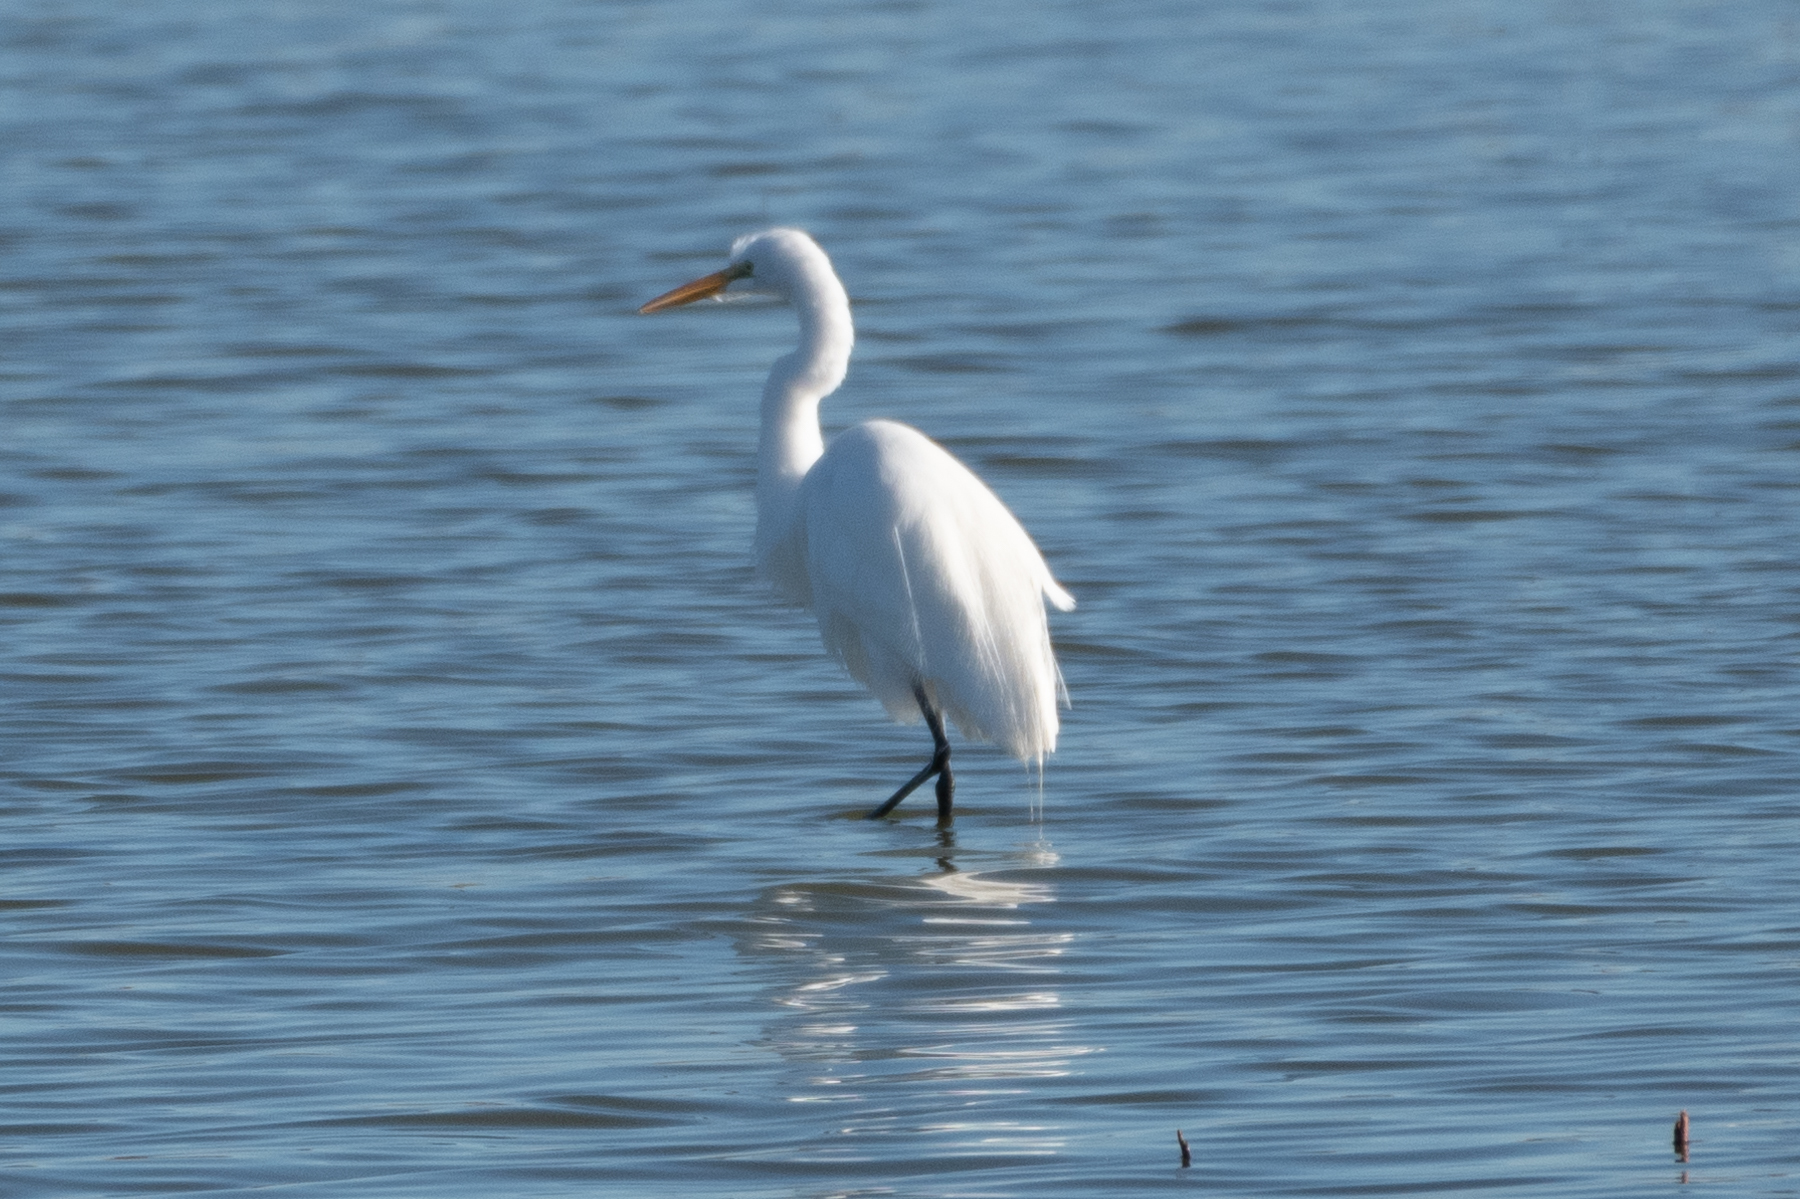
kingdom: Animalia
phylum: Chordata
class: Aves
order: Pelecaniformes
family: Ardeidae
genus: Ardea
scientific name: Ardea alba
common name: Great egret
